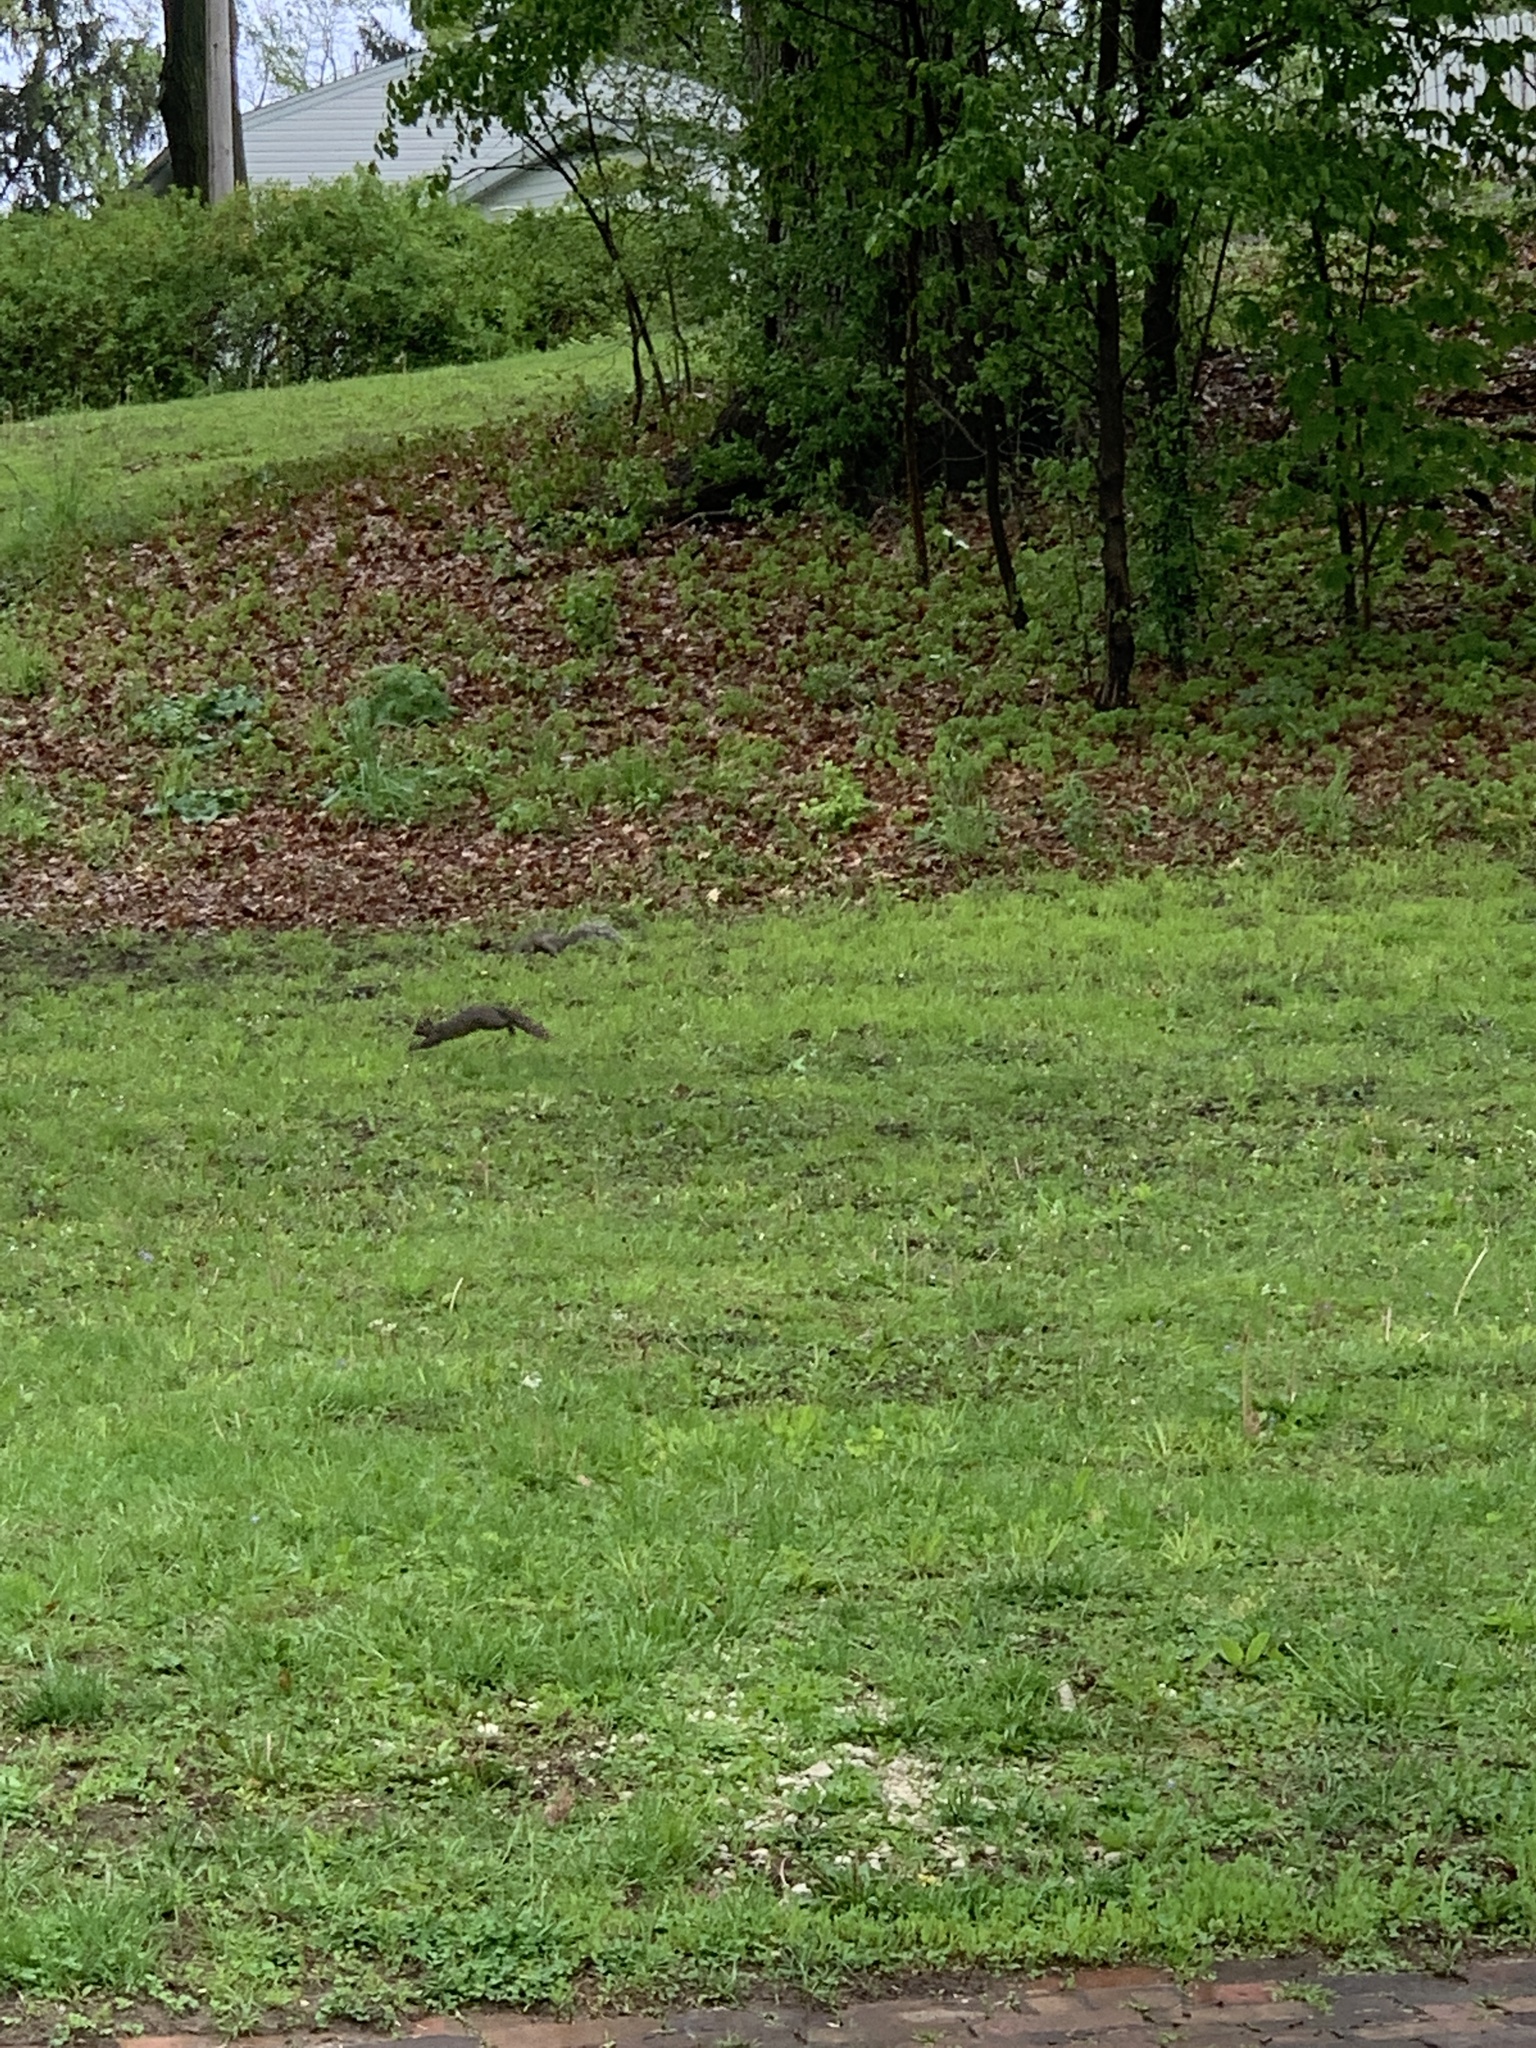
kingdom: Animalia
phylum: Chordata
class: Mammalia
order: Rodentia
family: Sciuridae
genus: Sciurus
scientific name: Sciurus carolinensis
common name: Eastern gray squirrel
